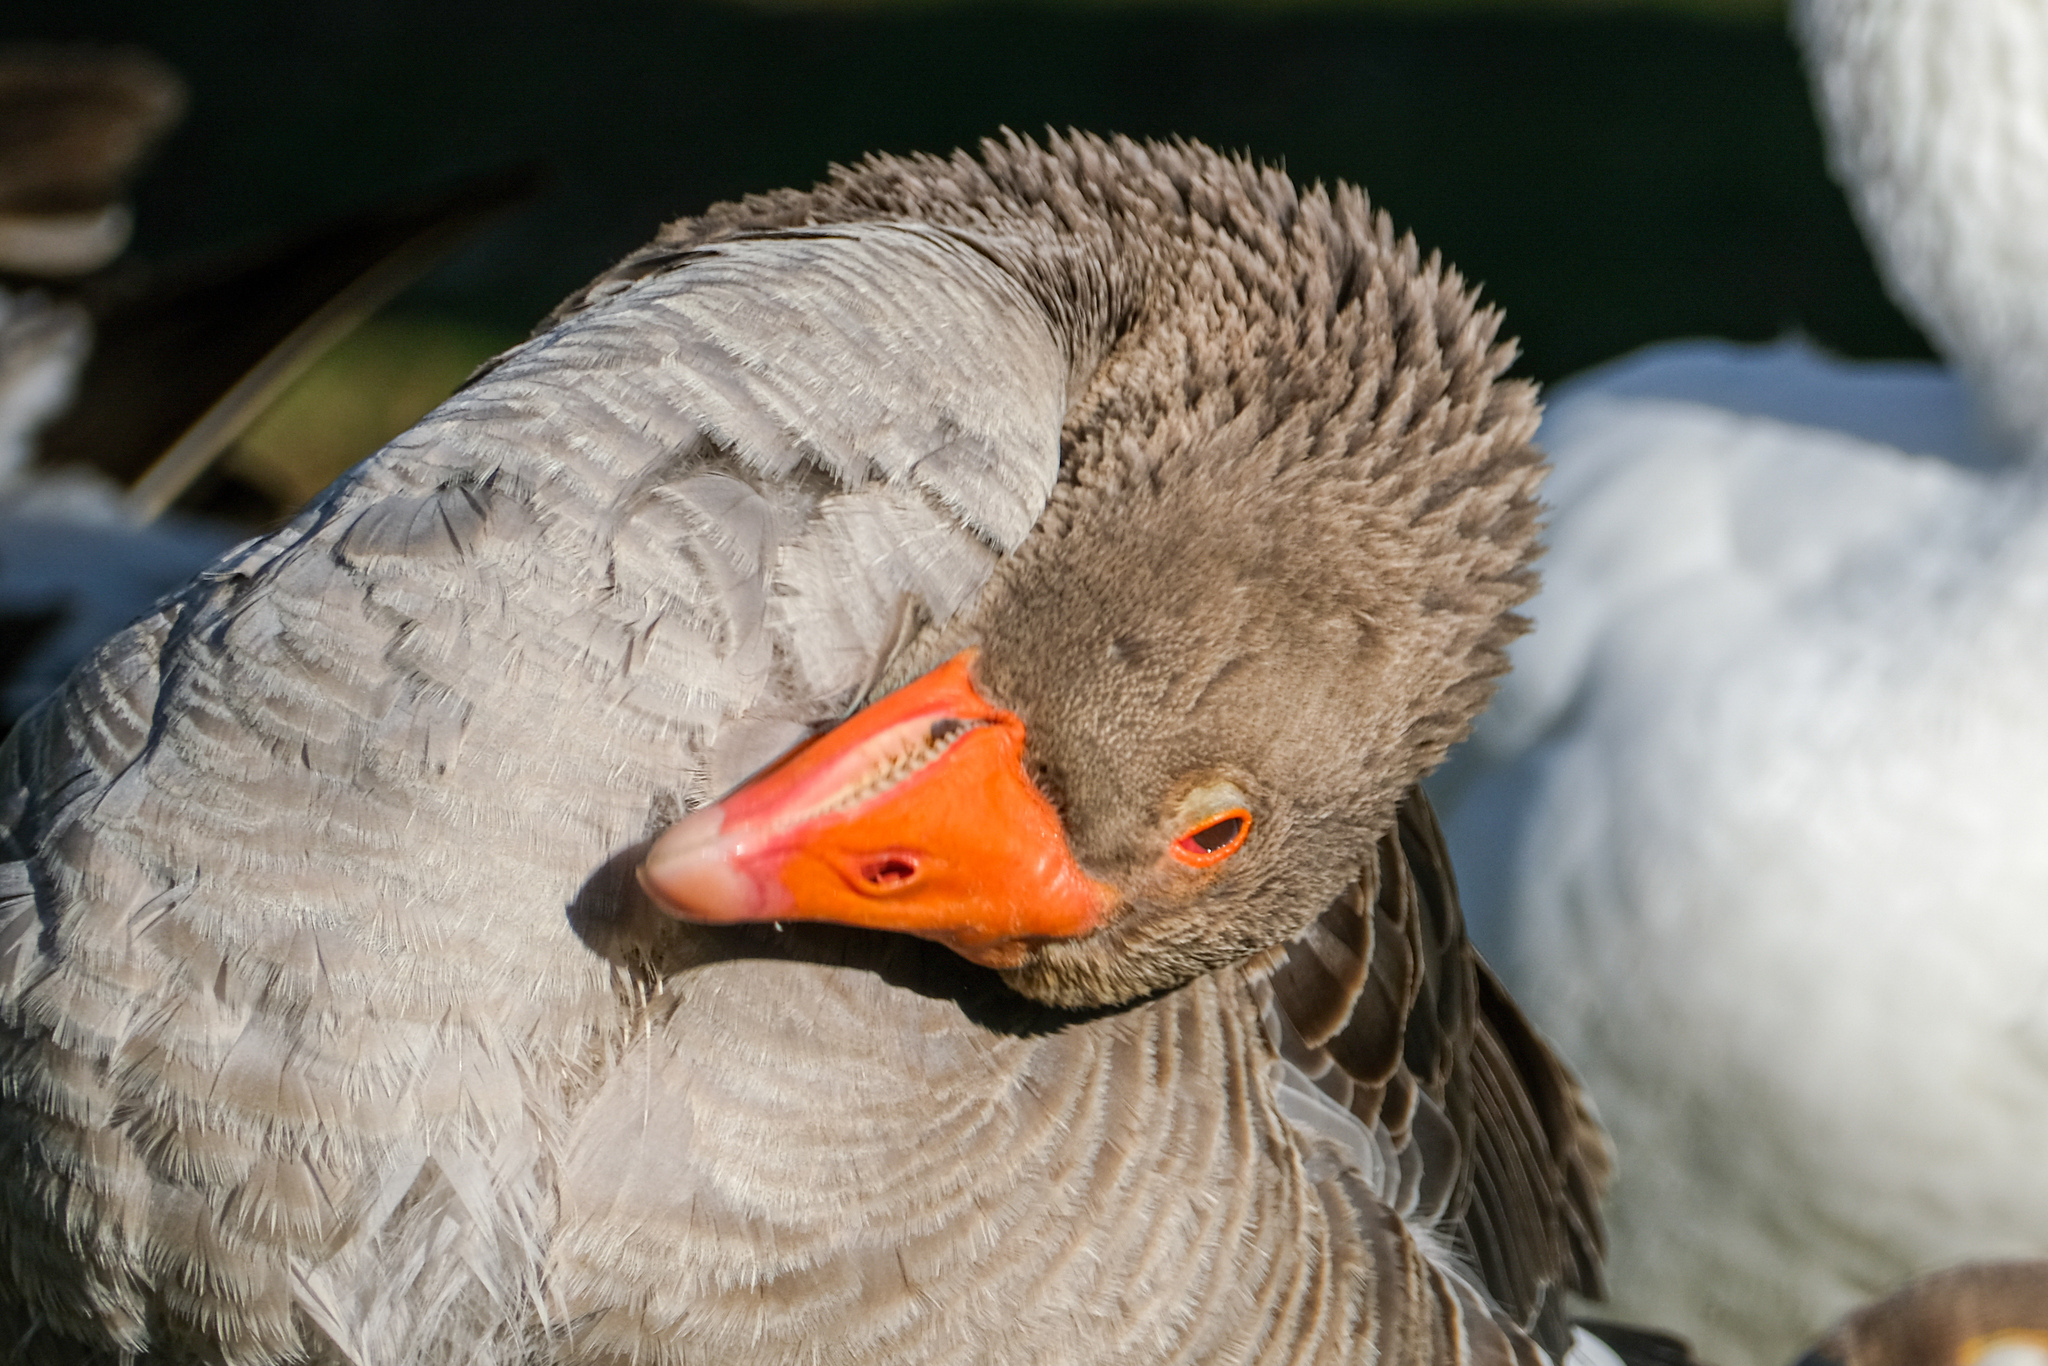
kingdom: Animalia
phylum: Chordata
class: Aves
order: Anseriformes
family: Anatidae
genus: Anser
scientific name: Anser anser
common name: Greylag goose
